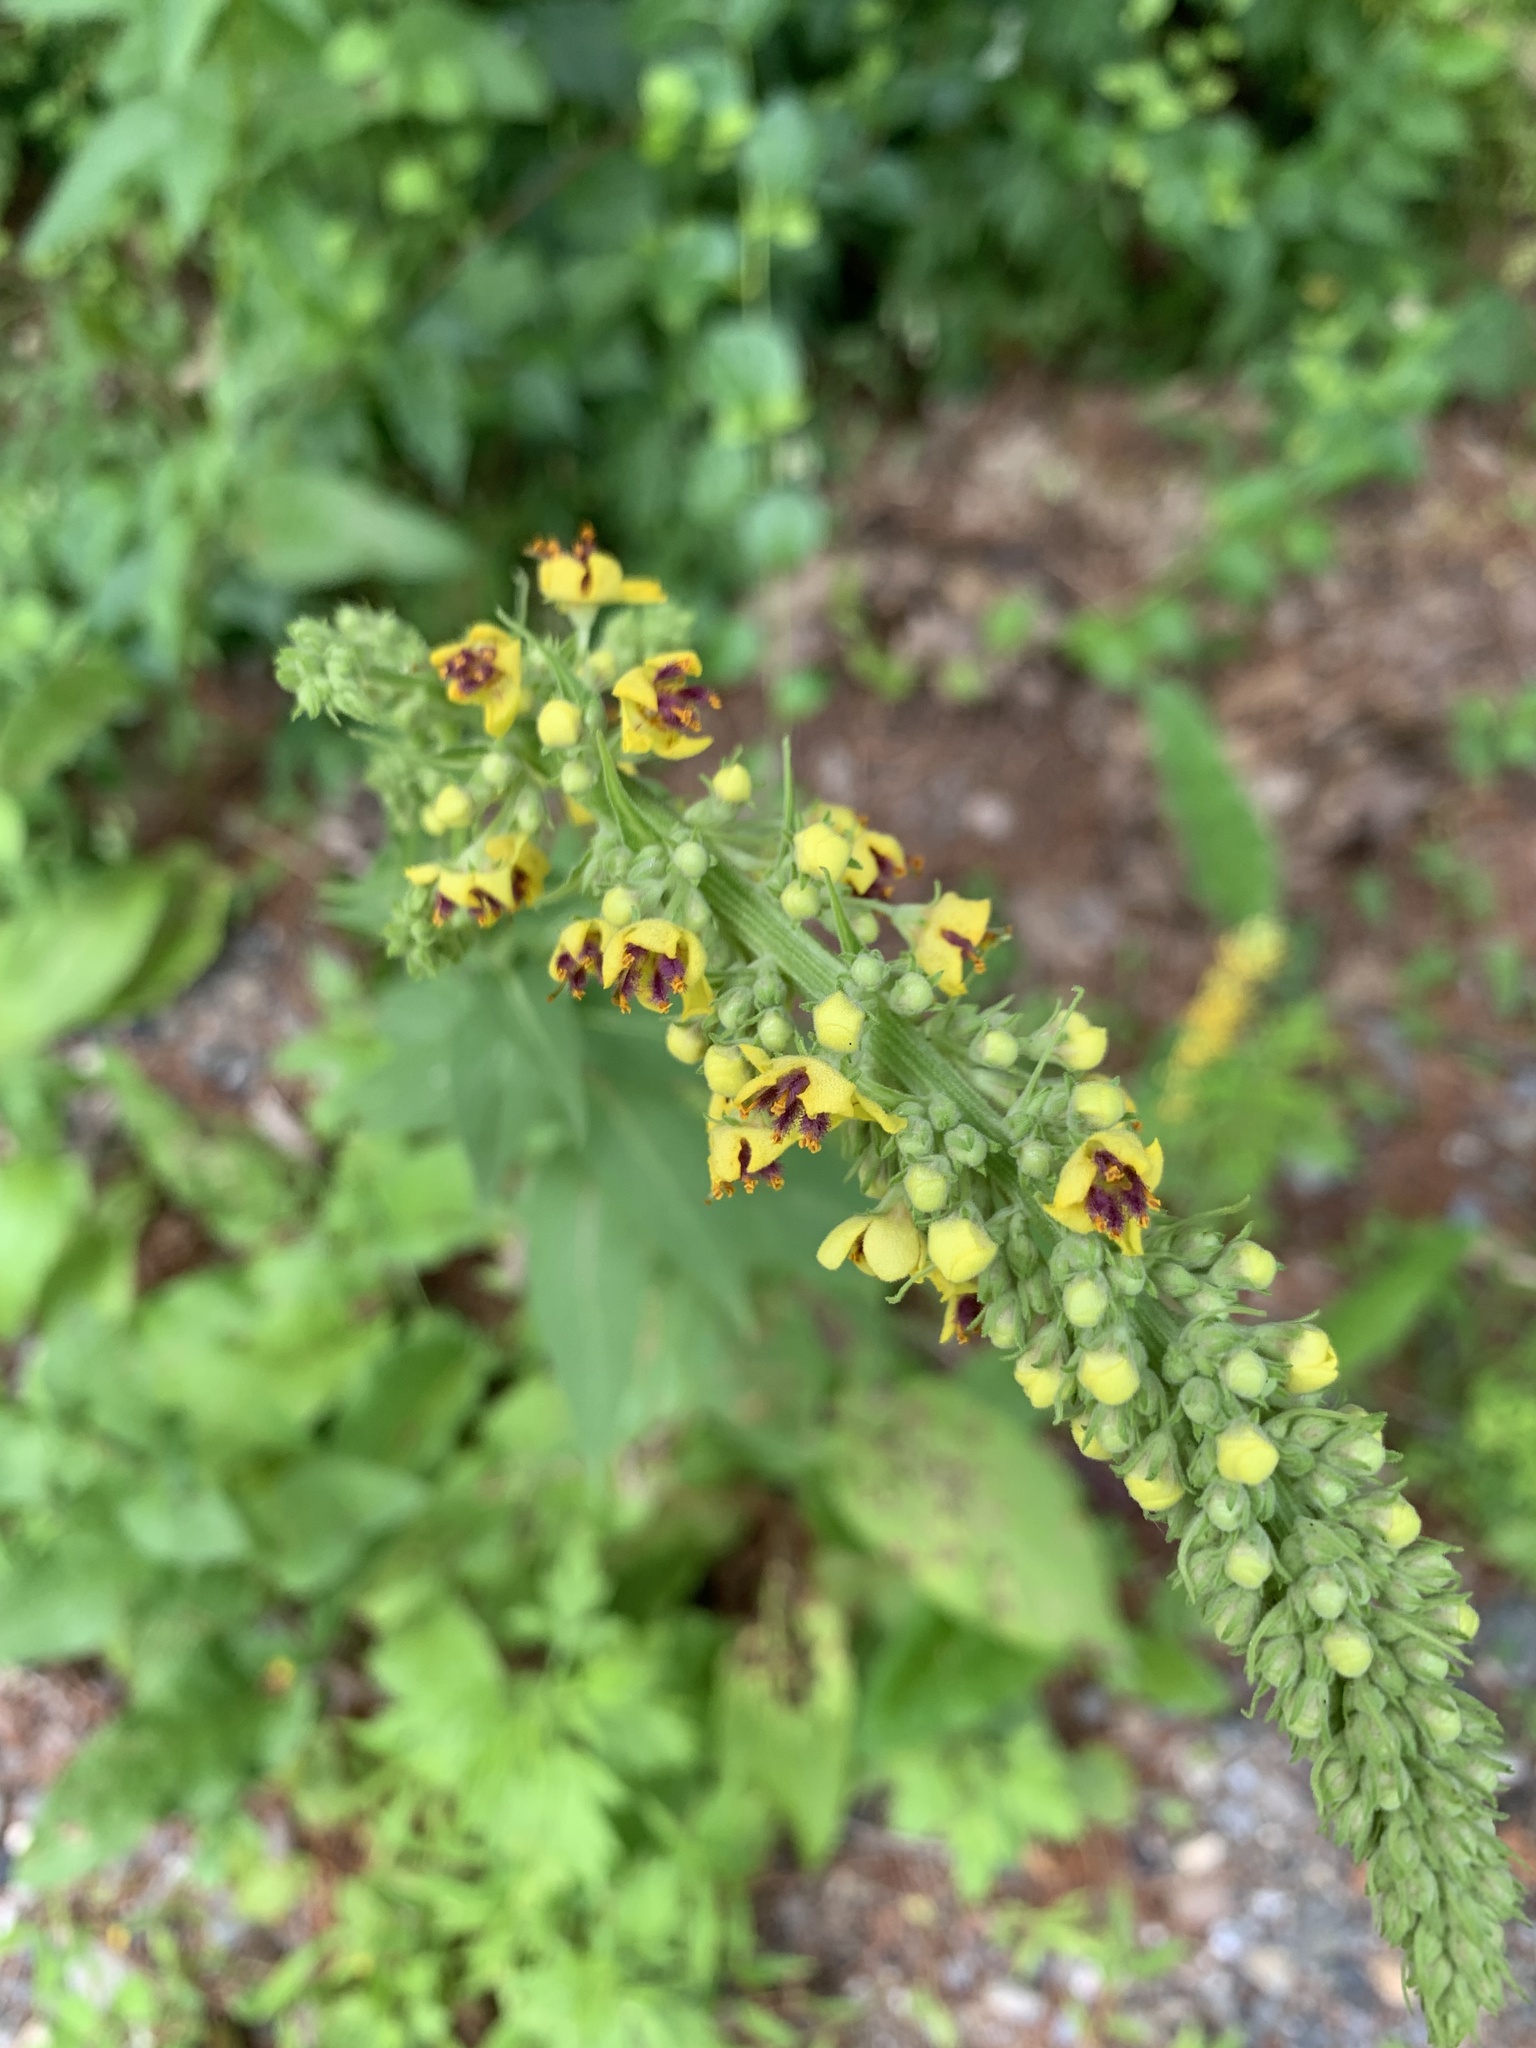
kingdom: Plantae
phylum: Tracheophyta
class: Magnoliopsida
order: Lamiales
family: Scrophulariaceae
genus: Verbascum
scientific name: Verbascum nigrum
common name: Dark mullein
